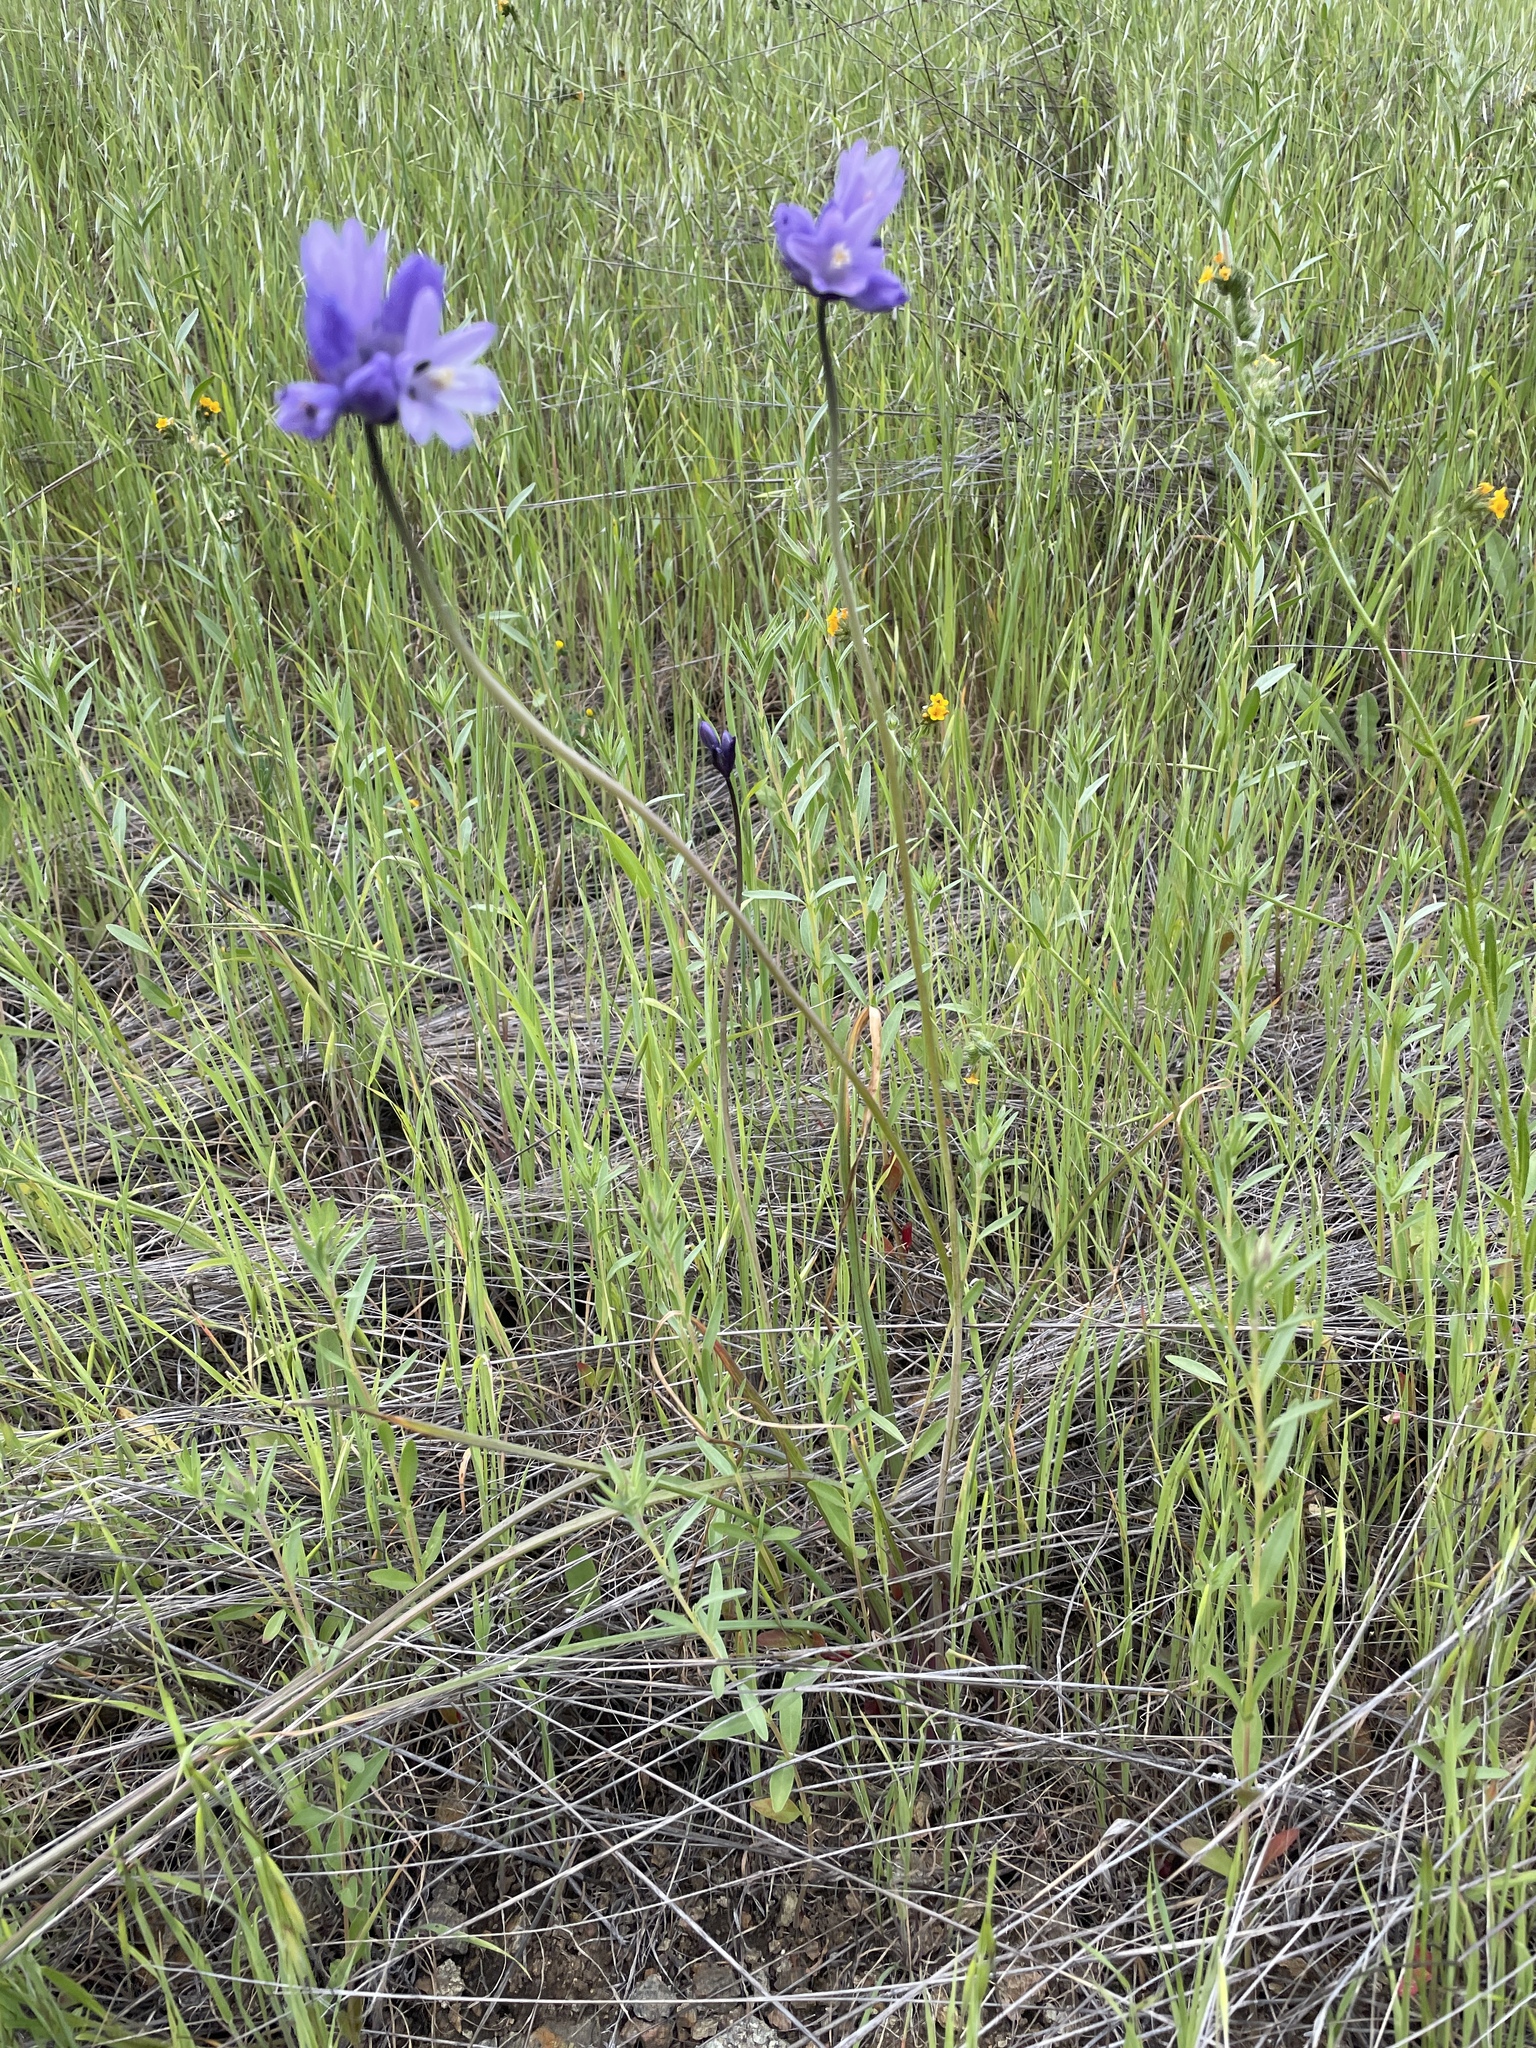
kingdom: Plantae
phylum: Tracheophyta
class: Liliopsida
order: Asparagales
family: Asparagaceae
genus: Dipterostemon
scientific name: Dipterostemon capitatus
